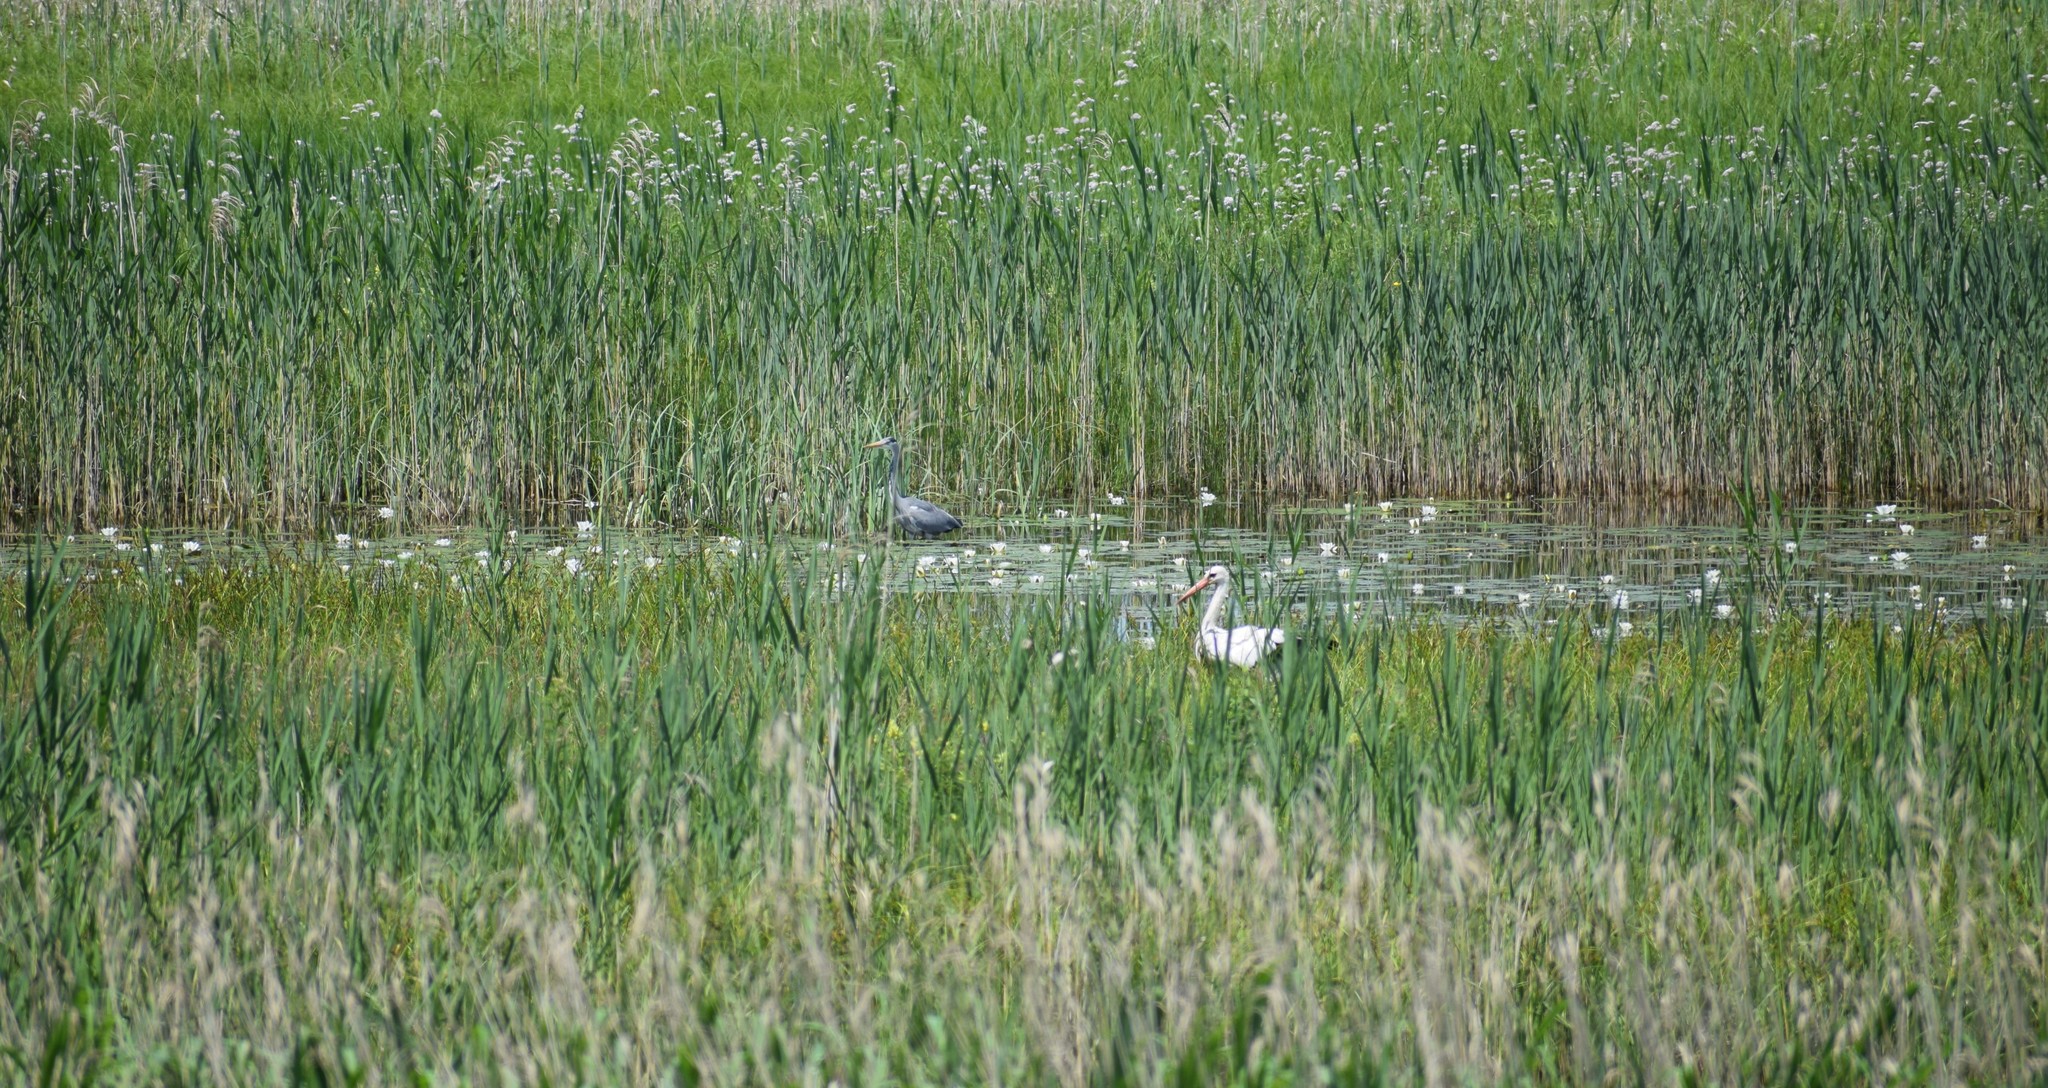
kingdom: Animalia
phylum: Chordata
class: Aves
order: Ciconiiformes
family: Ciconiidae
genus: Ciconia
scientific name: Ciconia ciconia
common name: White stork
